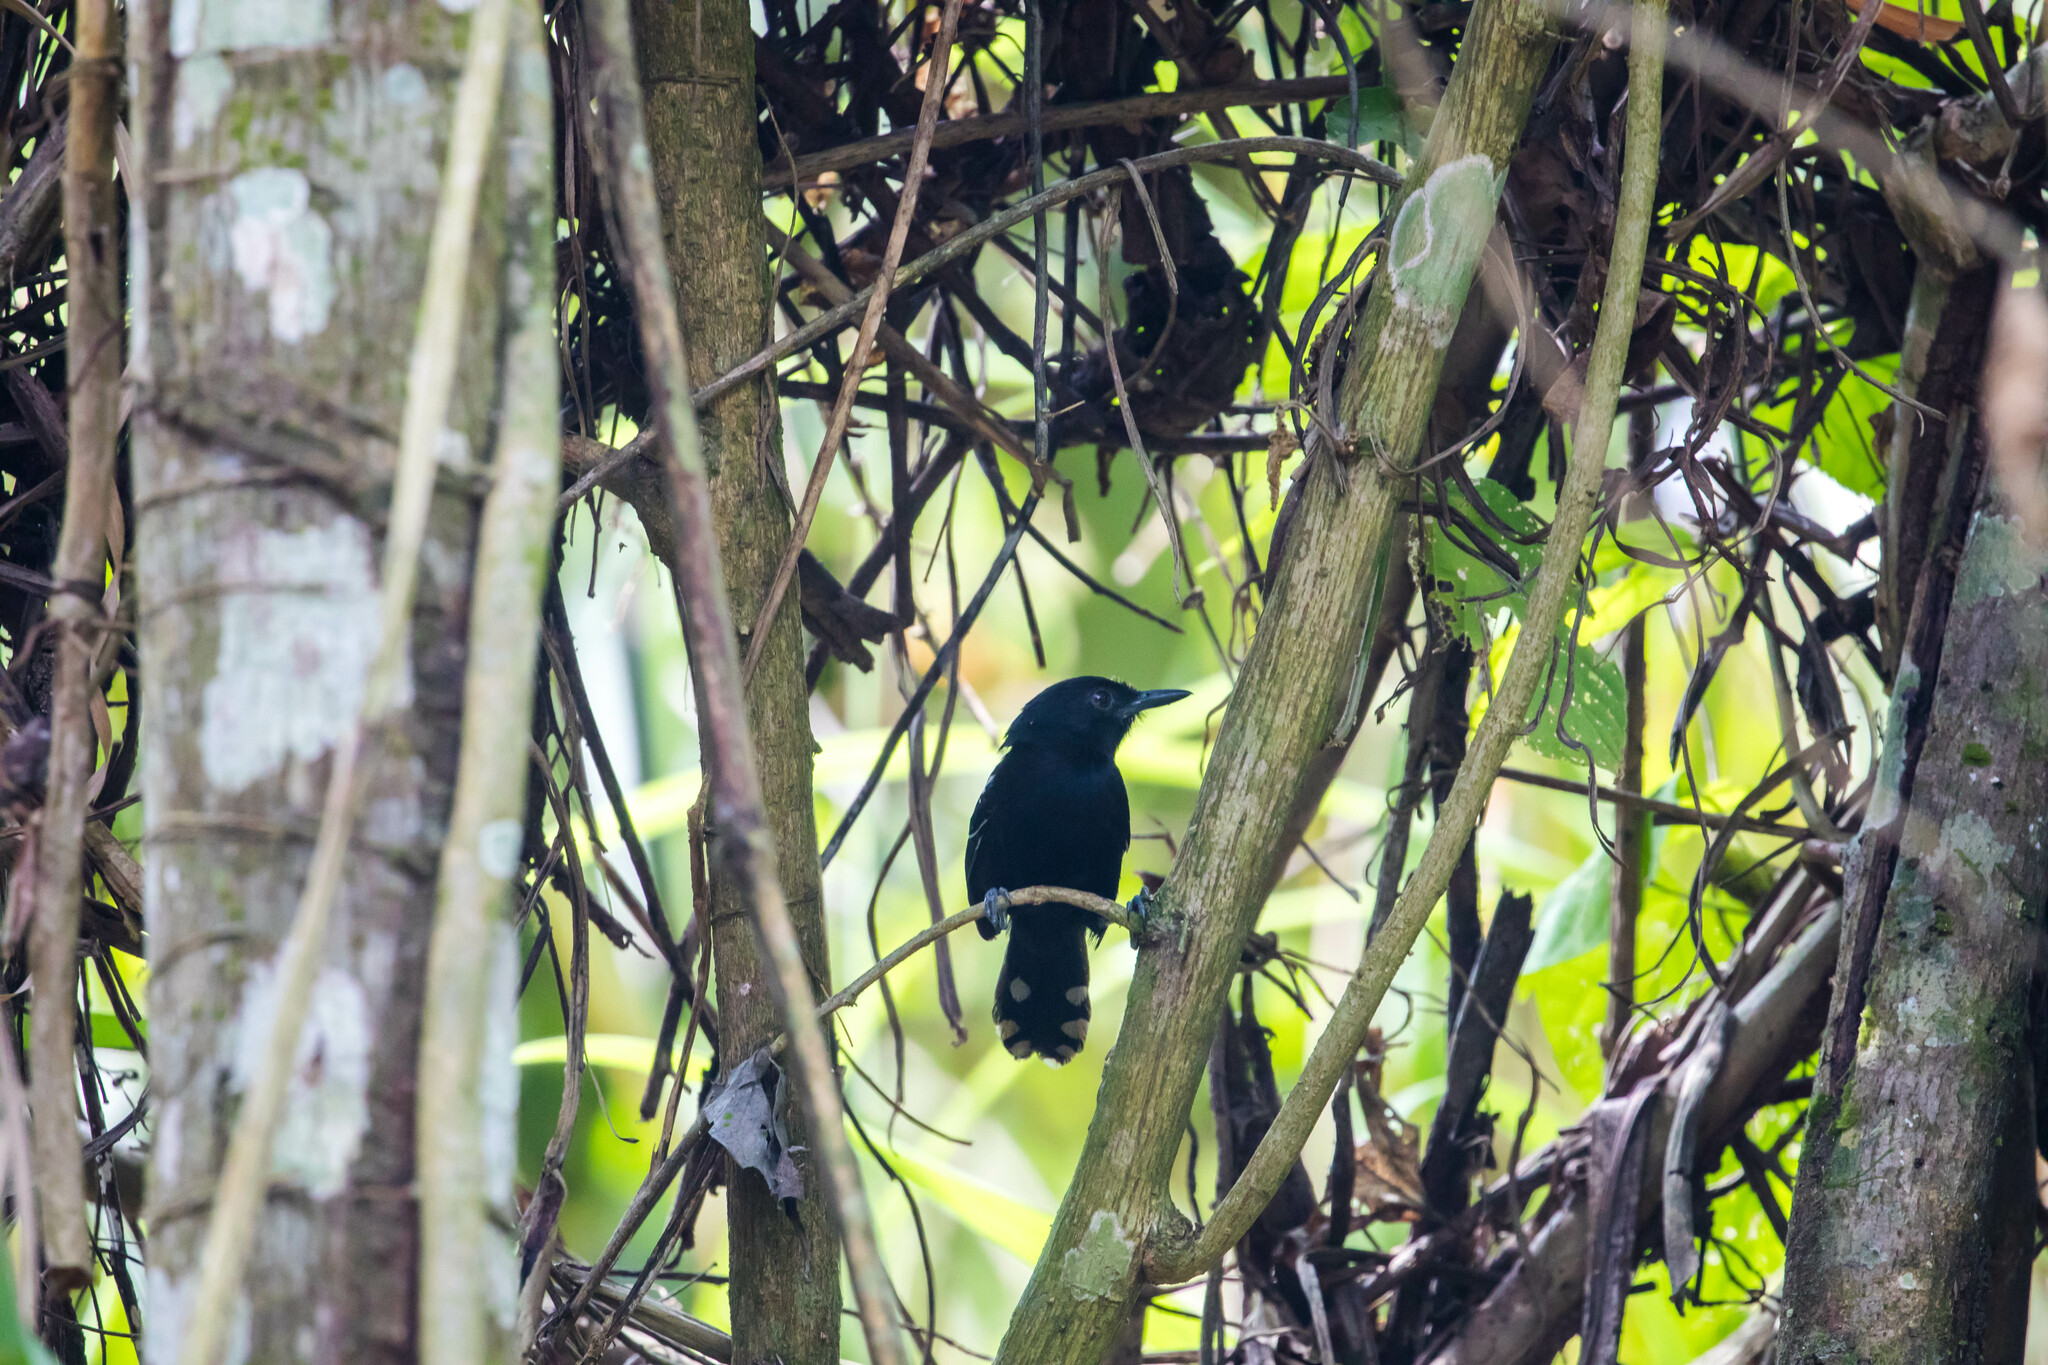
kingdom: Animalia
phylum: Chordata
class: Aves
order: Passeriformes
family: Thamnophilidae
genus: Cercomacra
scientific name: Cercomacra nigricans
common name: Jet antbird
